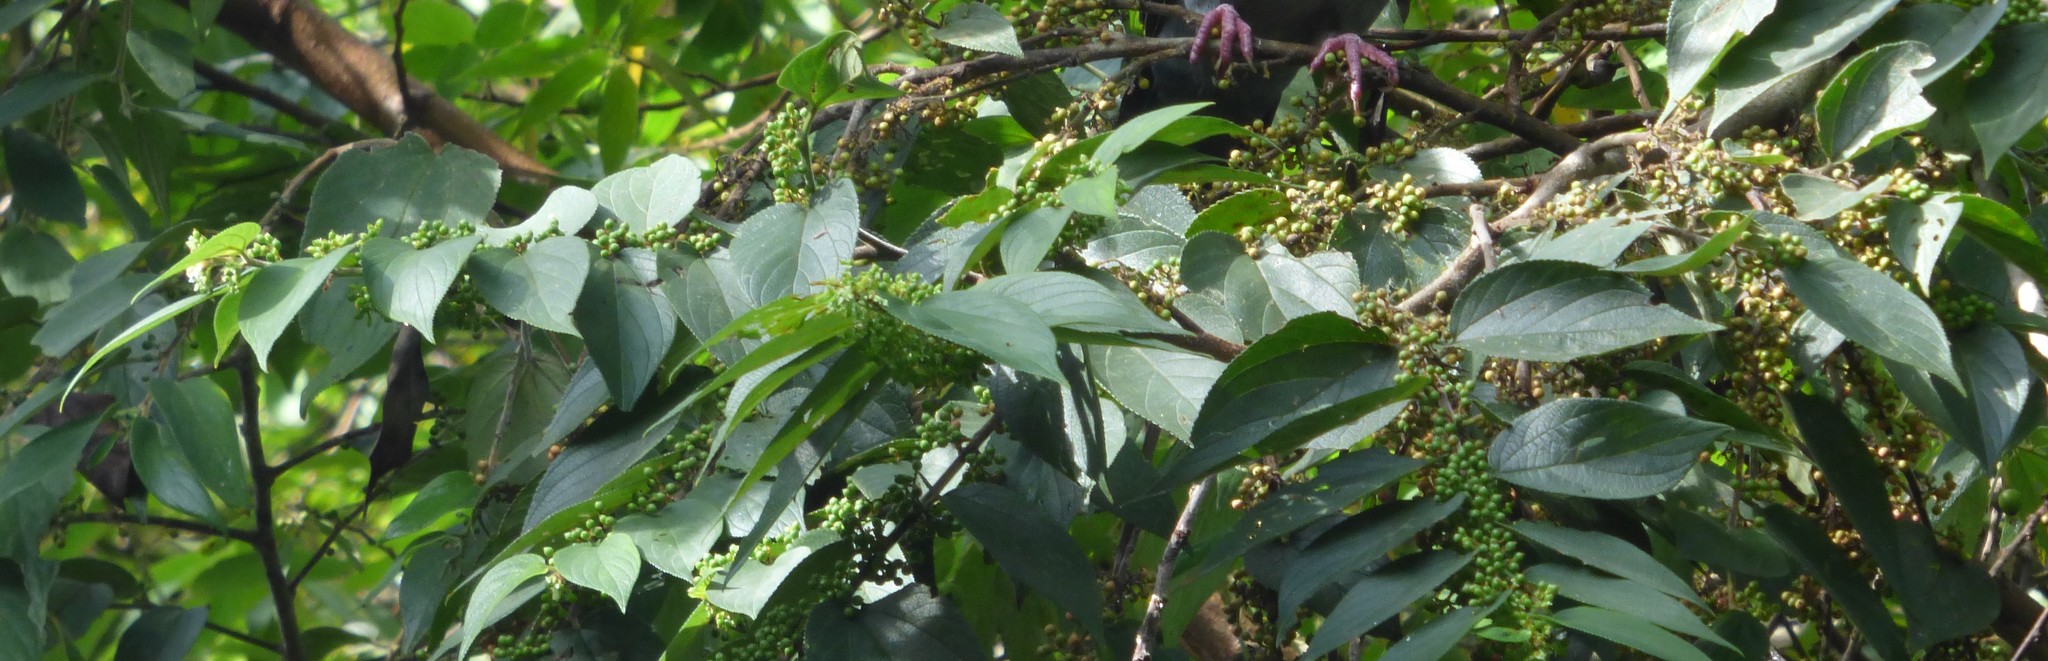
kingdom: Animalia
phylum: Chordata
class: Aves
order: Columbiformes
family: Columbidae
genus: Patagioenas
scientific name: Patagioenas flavirostris
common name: Red-billed pigeon
